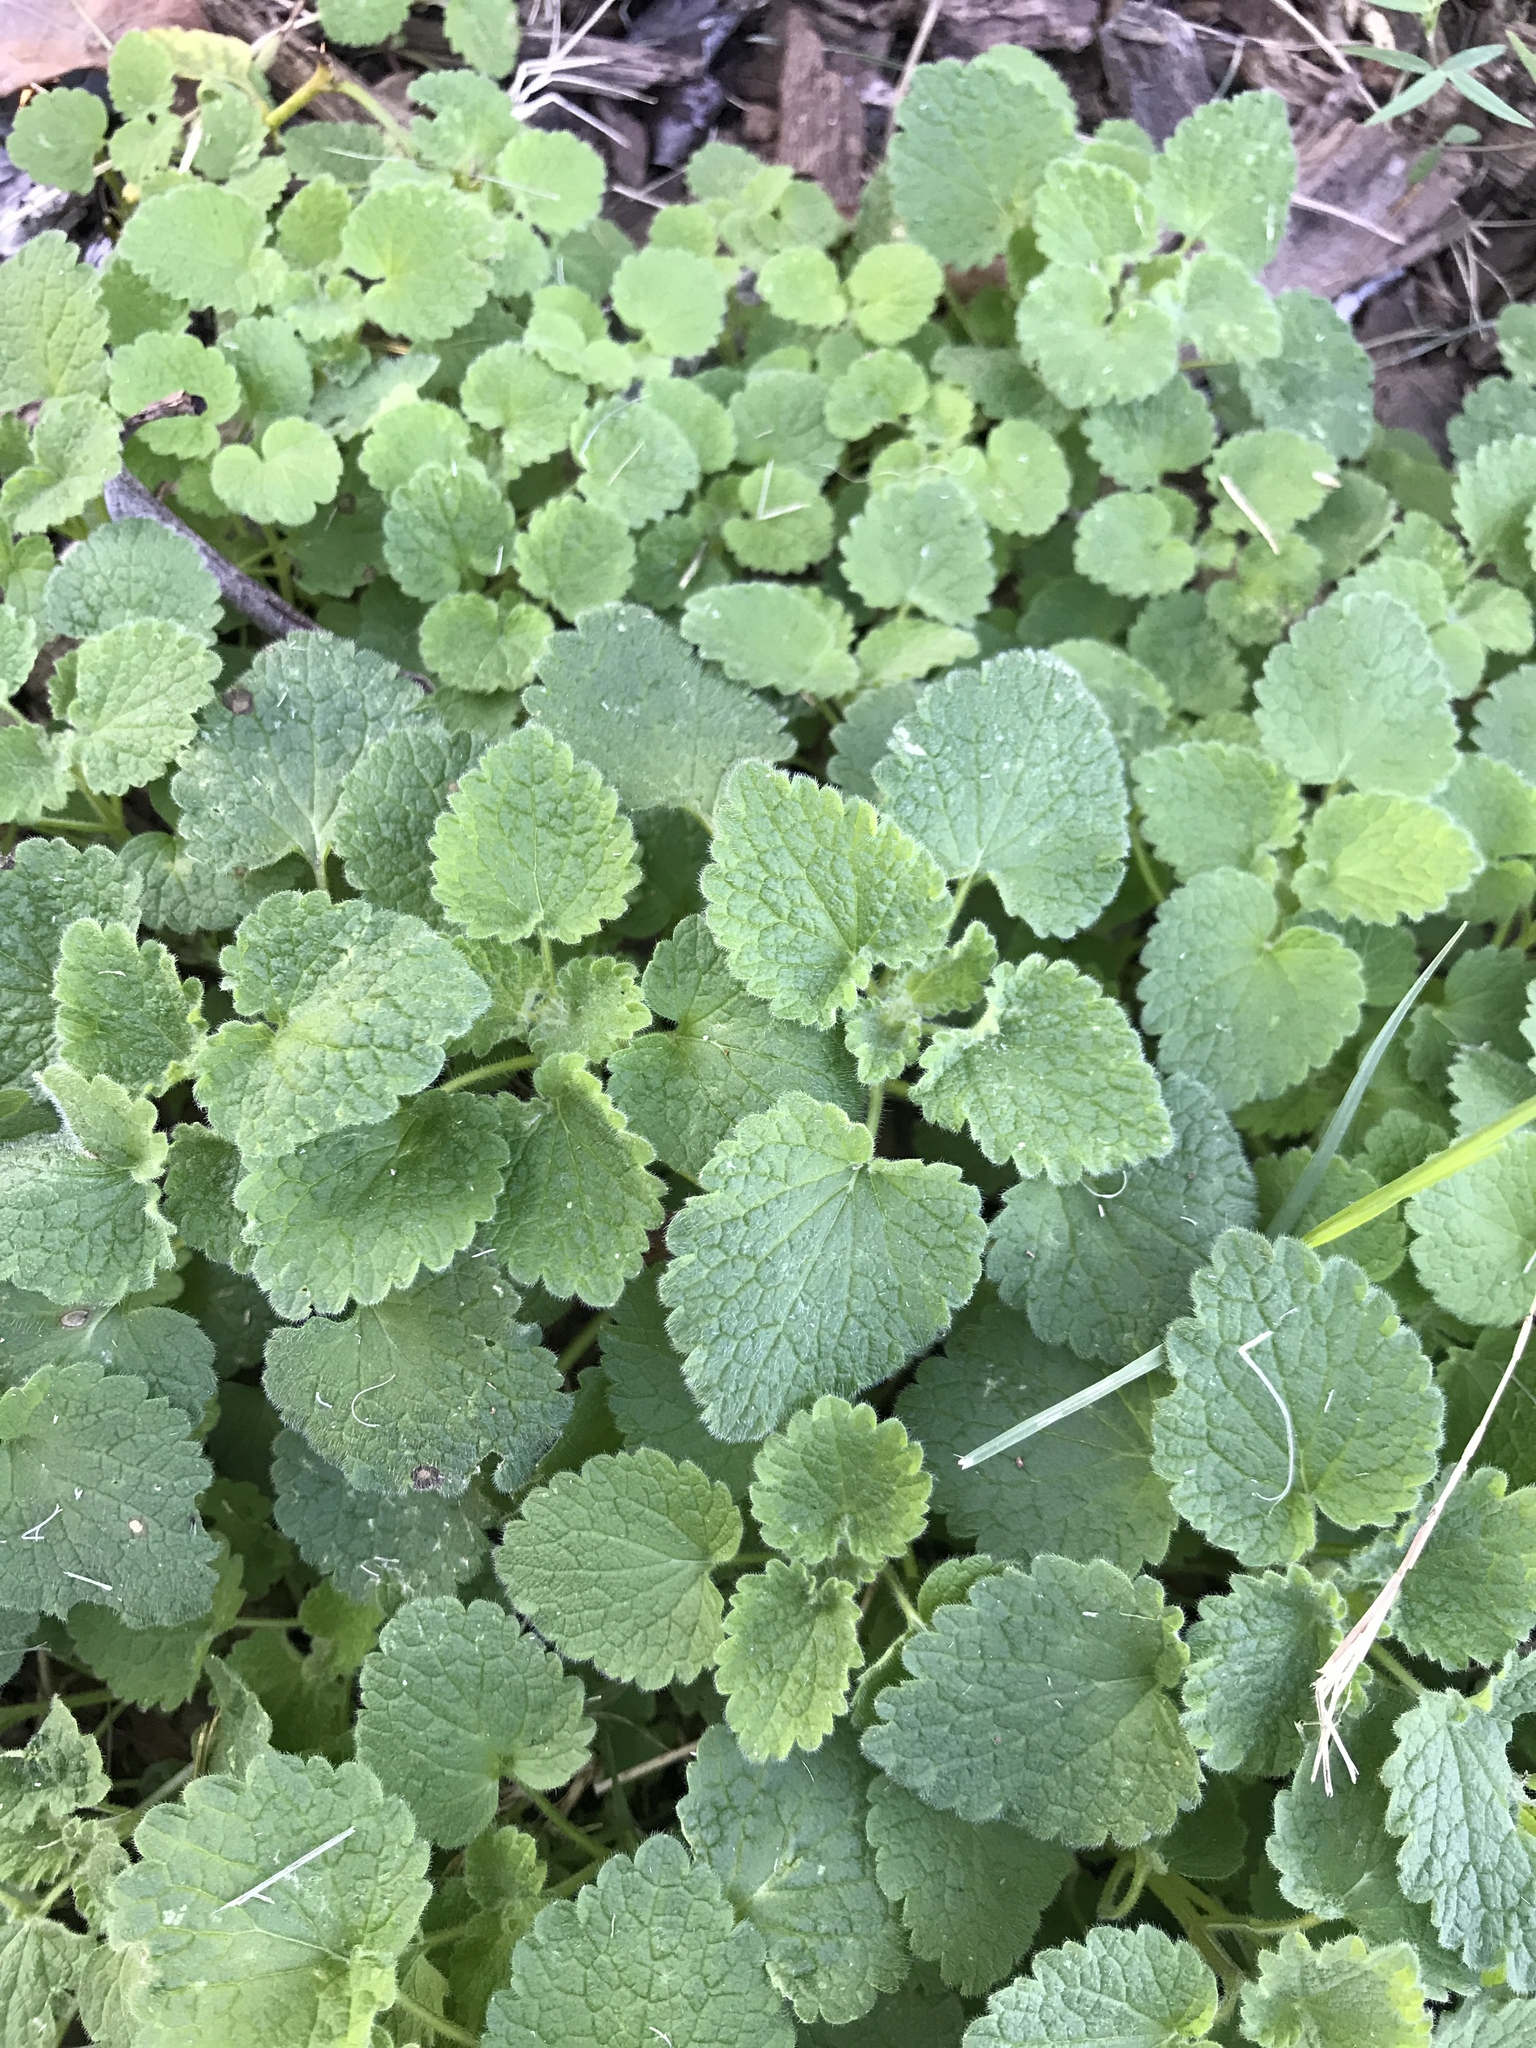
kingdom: Plantae
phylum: Tracheophyta
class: Magnoliopsida
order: Lamiales
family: Lamiaceae
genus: Lamium
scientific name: Lamium purpureum
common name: Red dead-nettle
